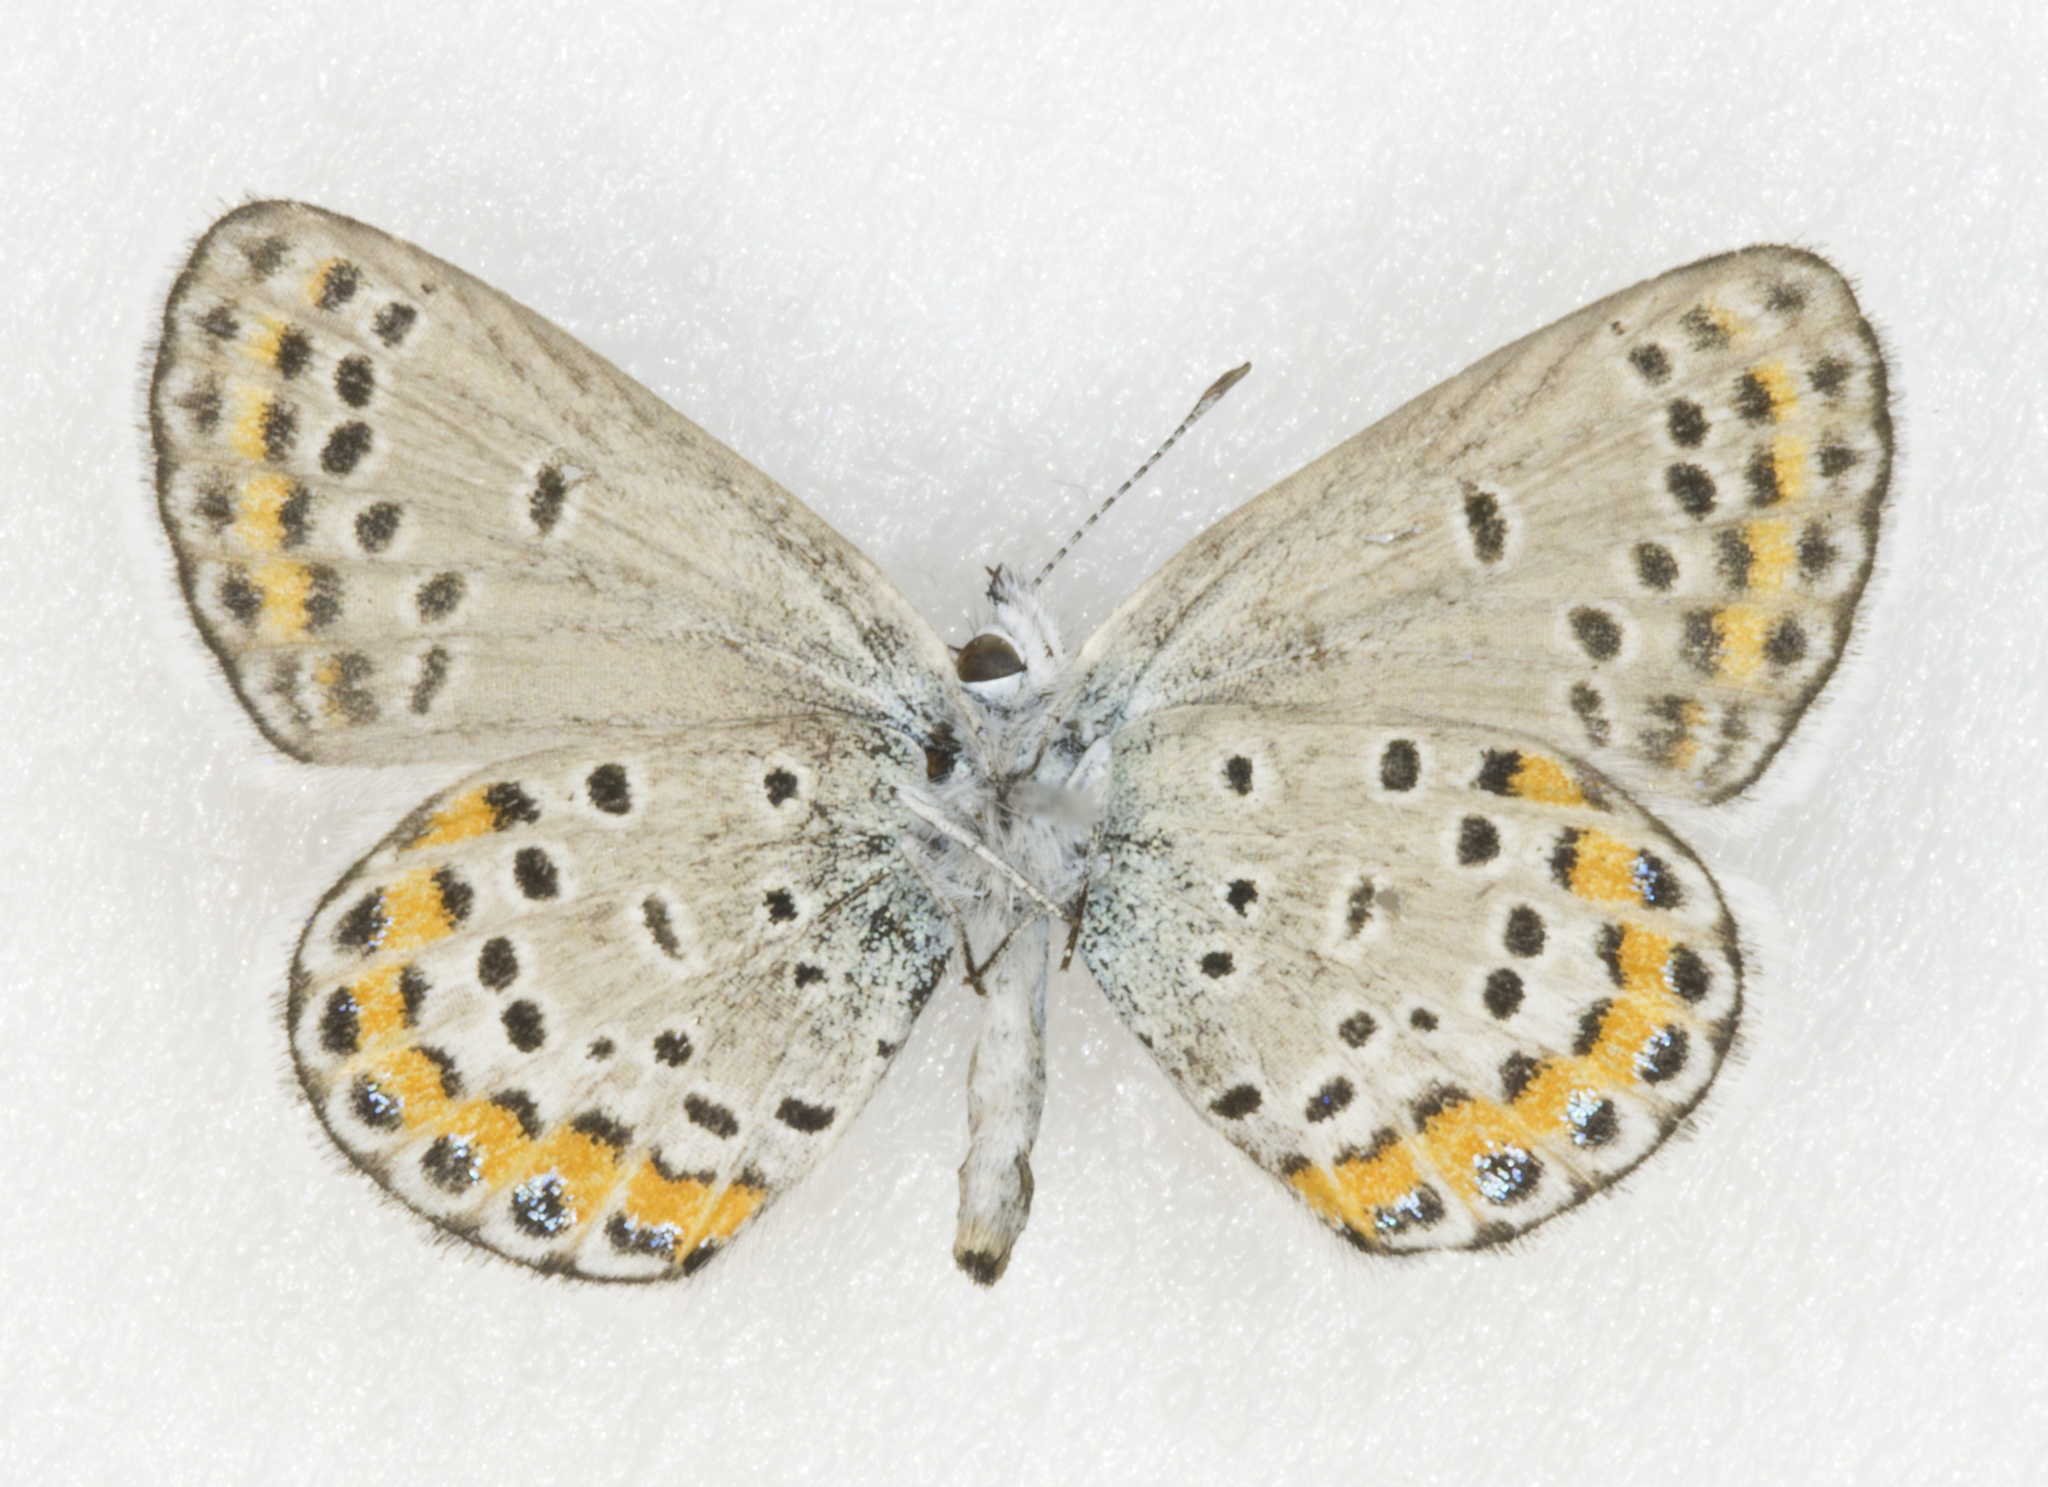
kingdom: Animalia
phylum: Arthropoda
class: Insecta
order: Lepidoptera
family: Lycaenidae
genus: Lycaeides
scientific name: Lycaeides melissa
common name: Melissa blue
